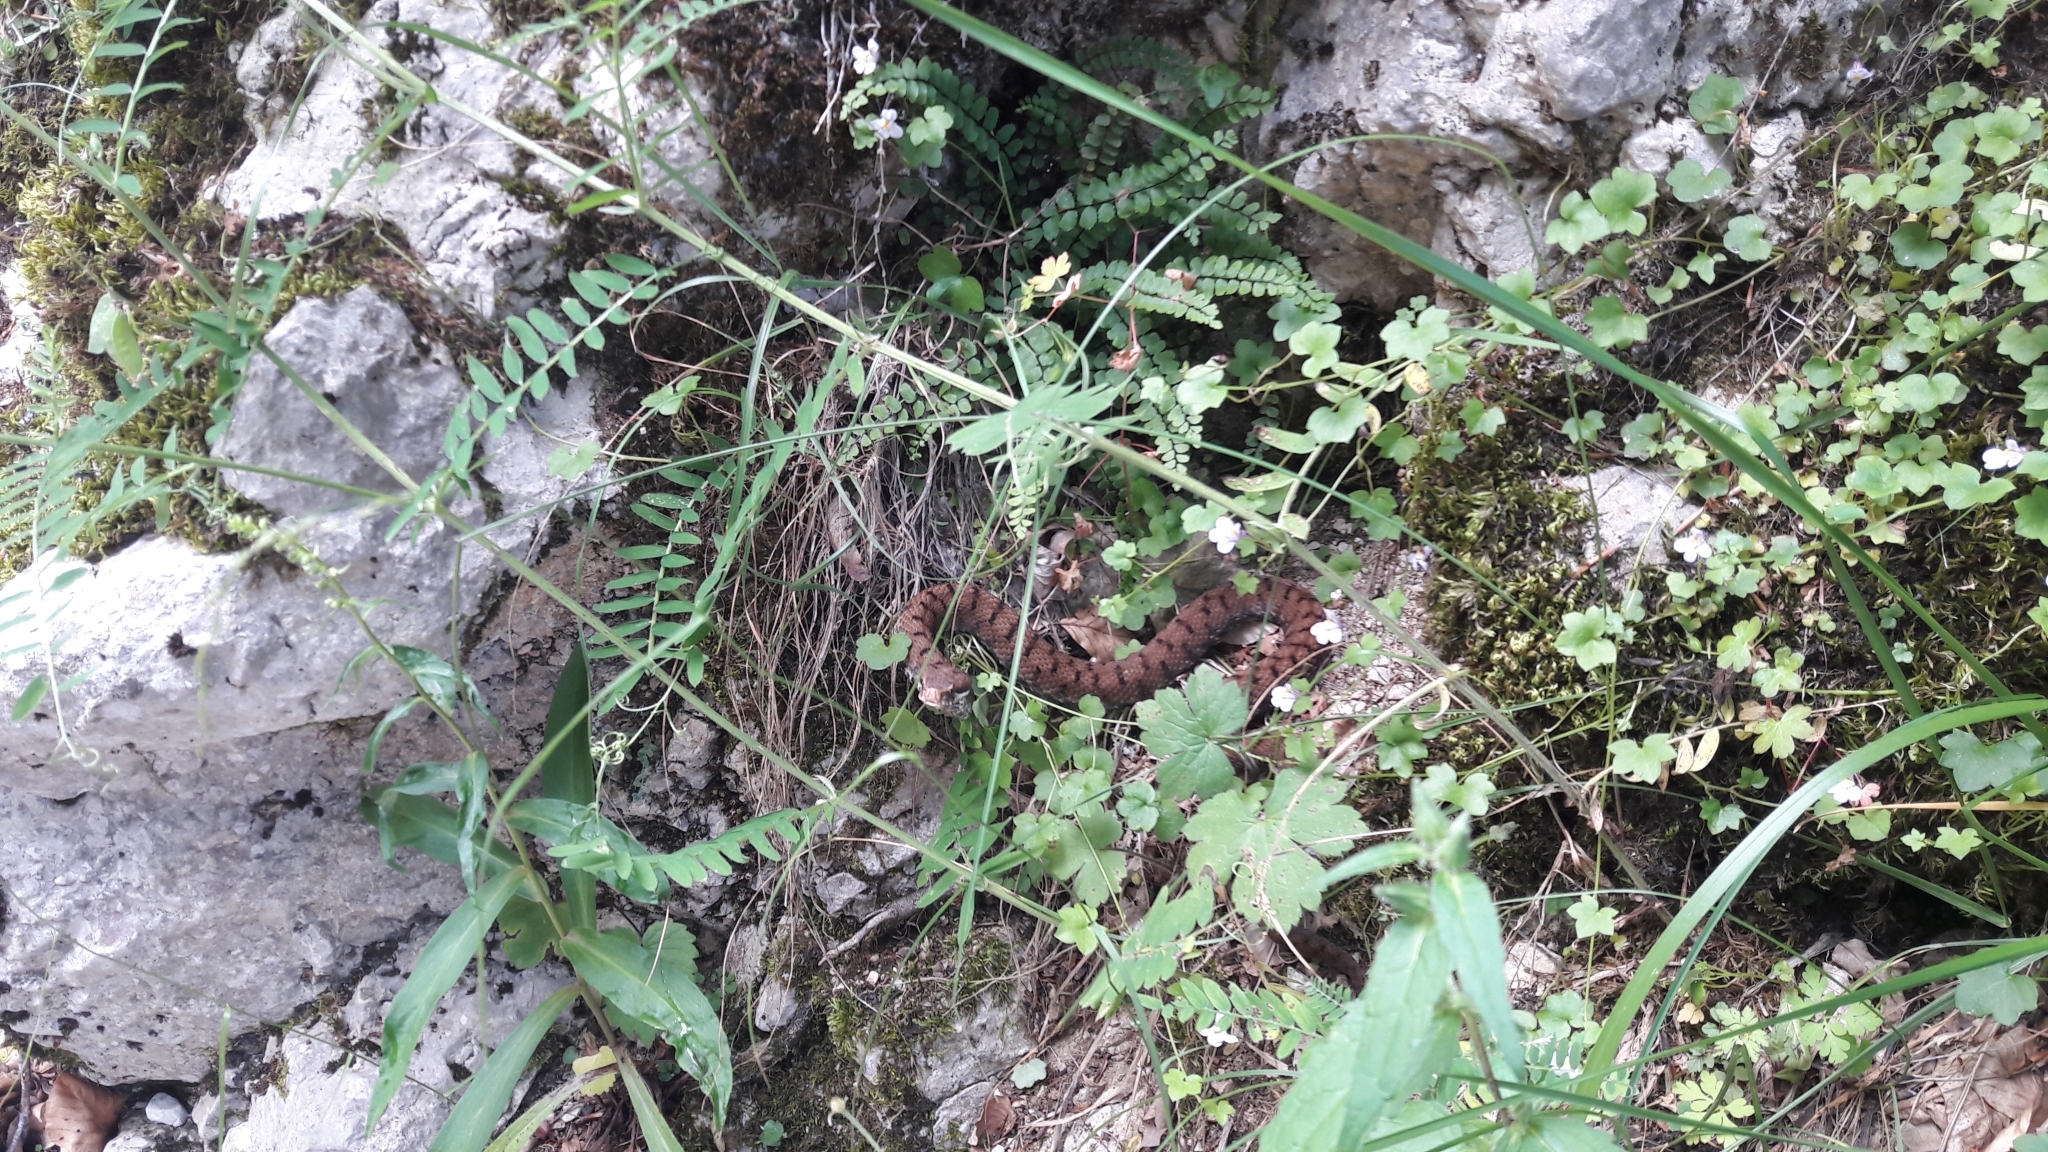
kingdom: Animalia
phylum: Chordata
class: Squamata
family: Viperidae
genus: Vipera
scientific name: Vipera aspis
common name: Asp viper
